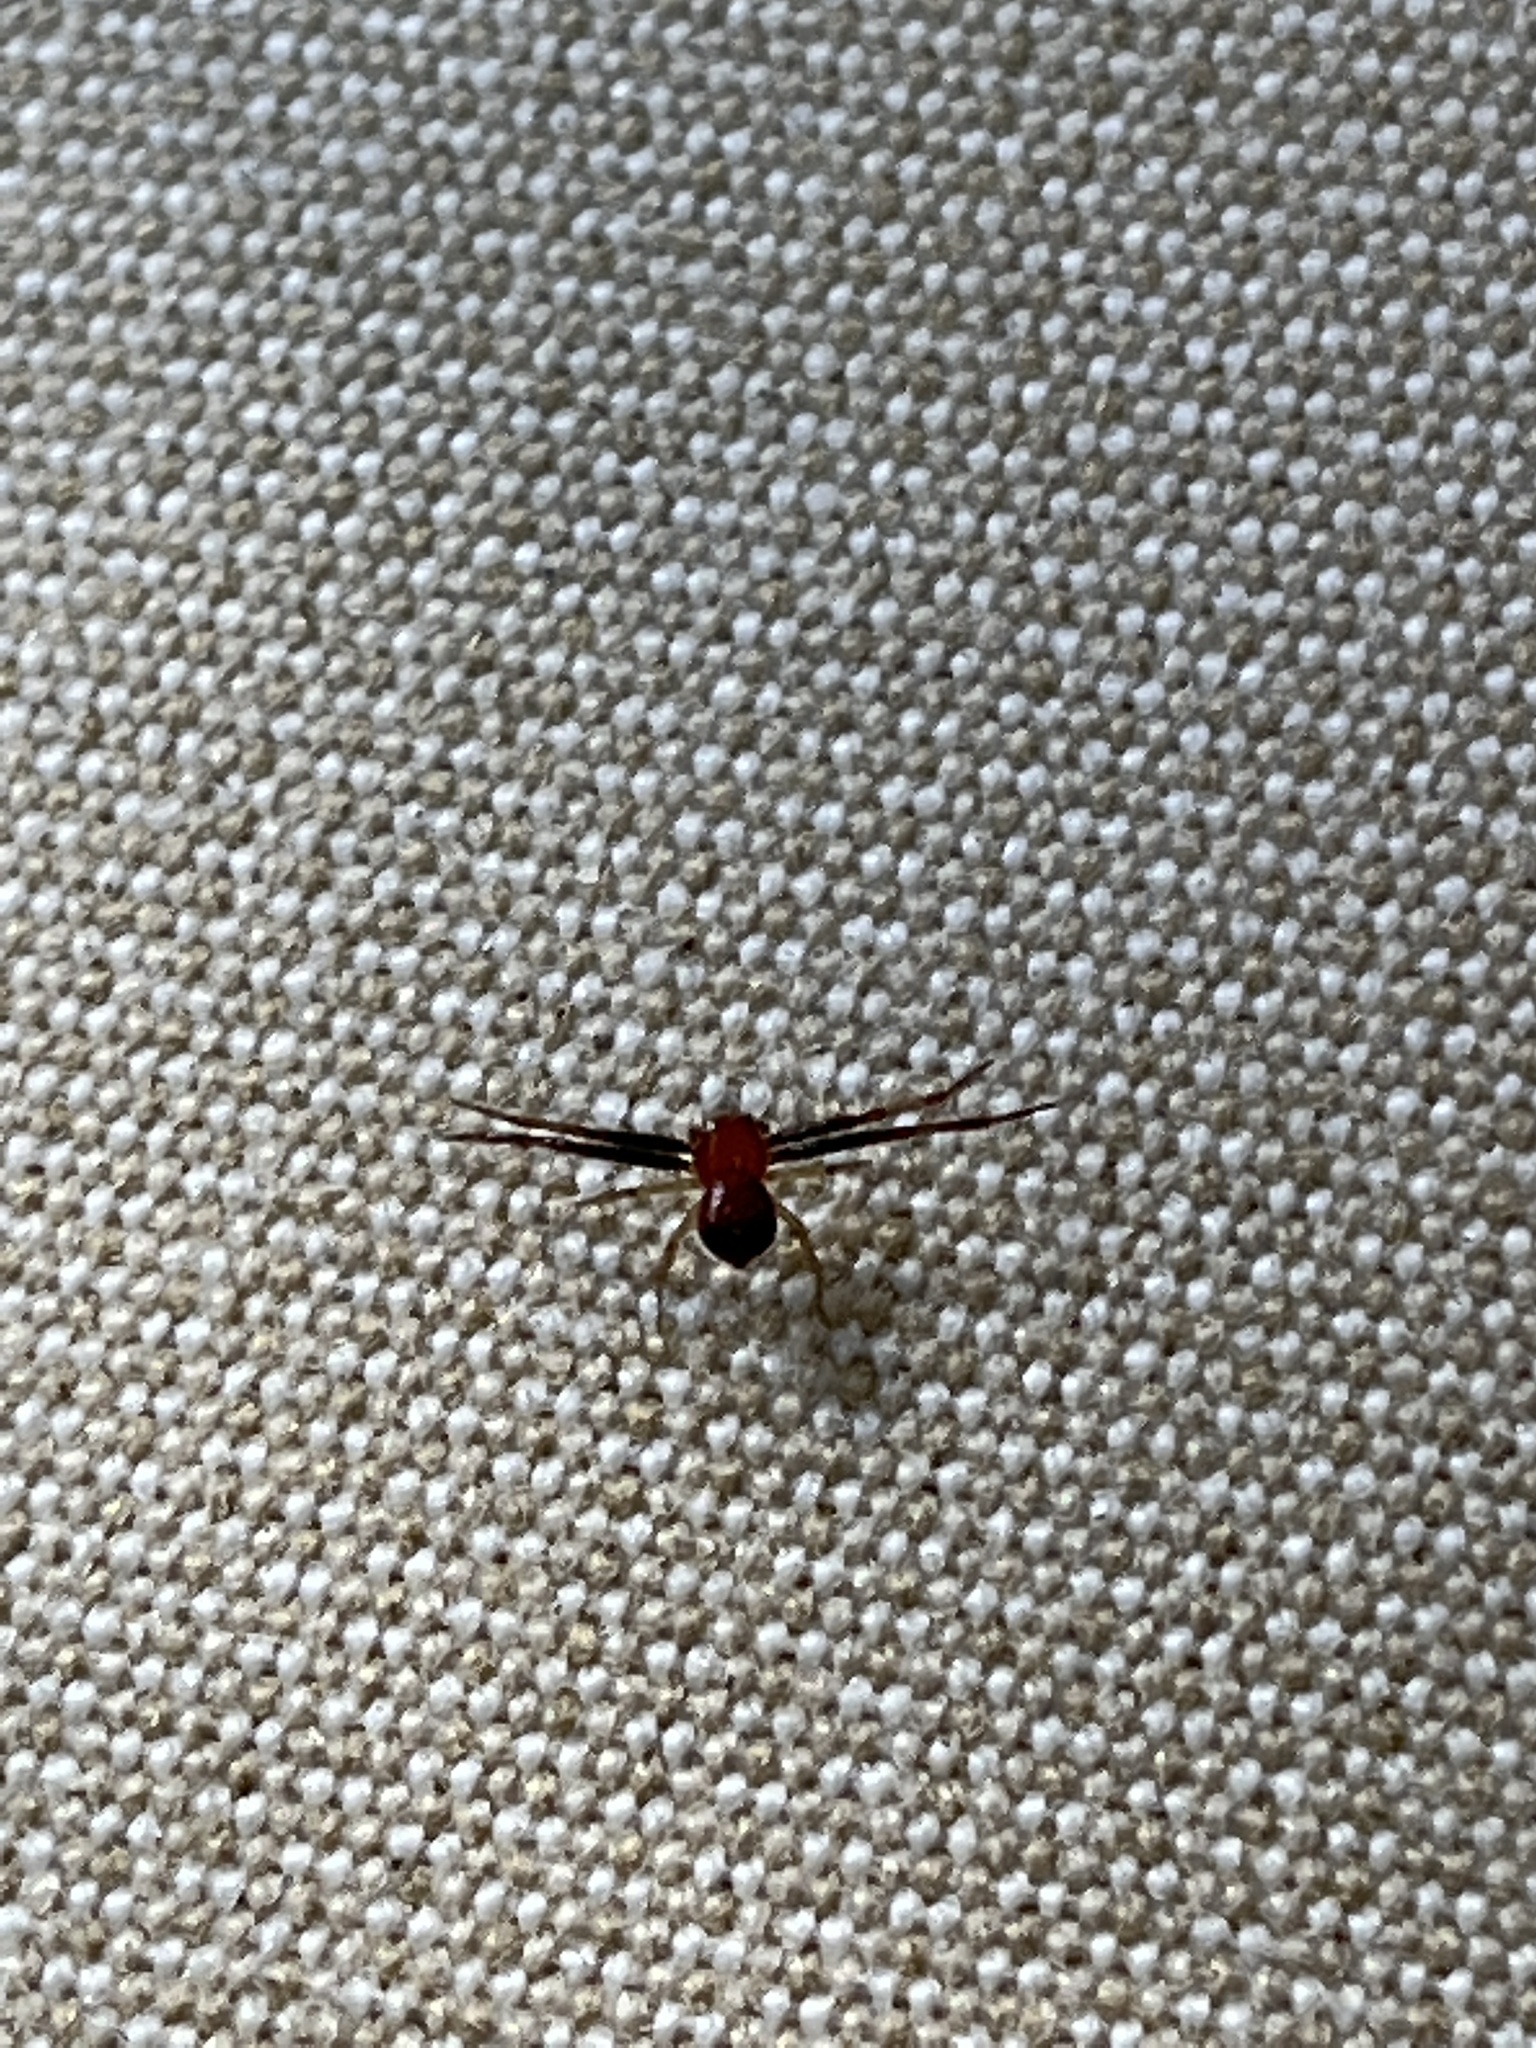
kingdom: Animalia
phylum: Arthropoda
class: Arachnida
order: Araneae
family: Thomisidae
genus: Synema
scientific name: Synema parvulum
